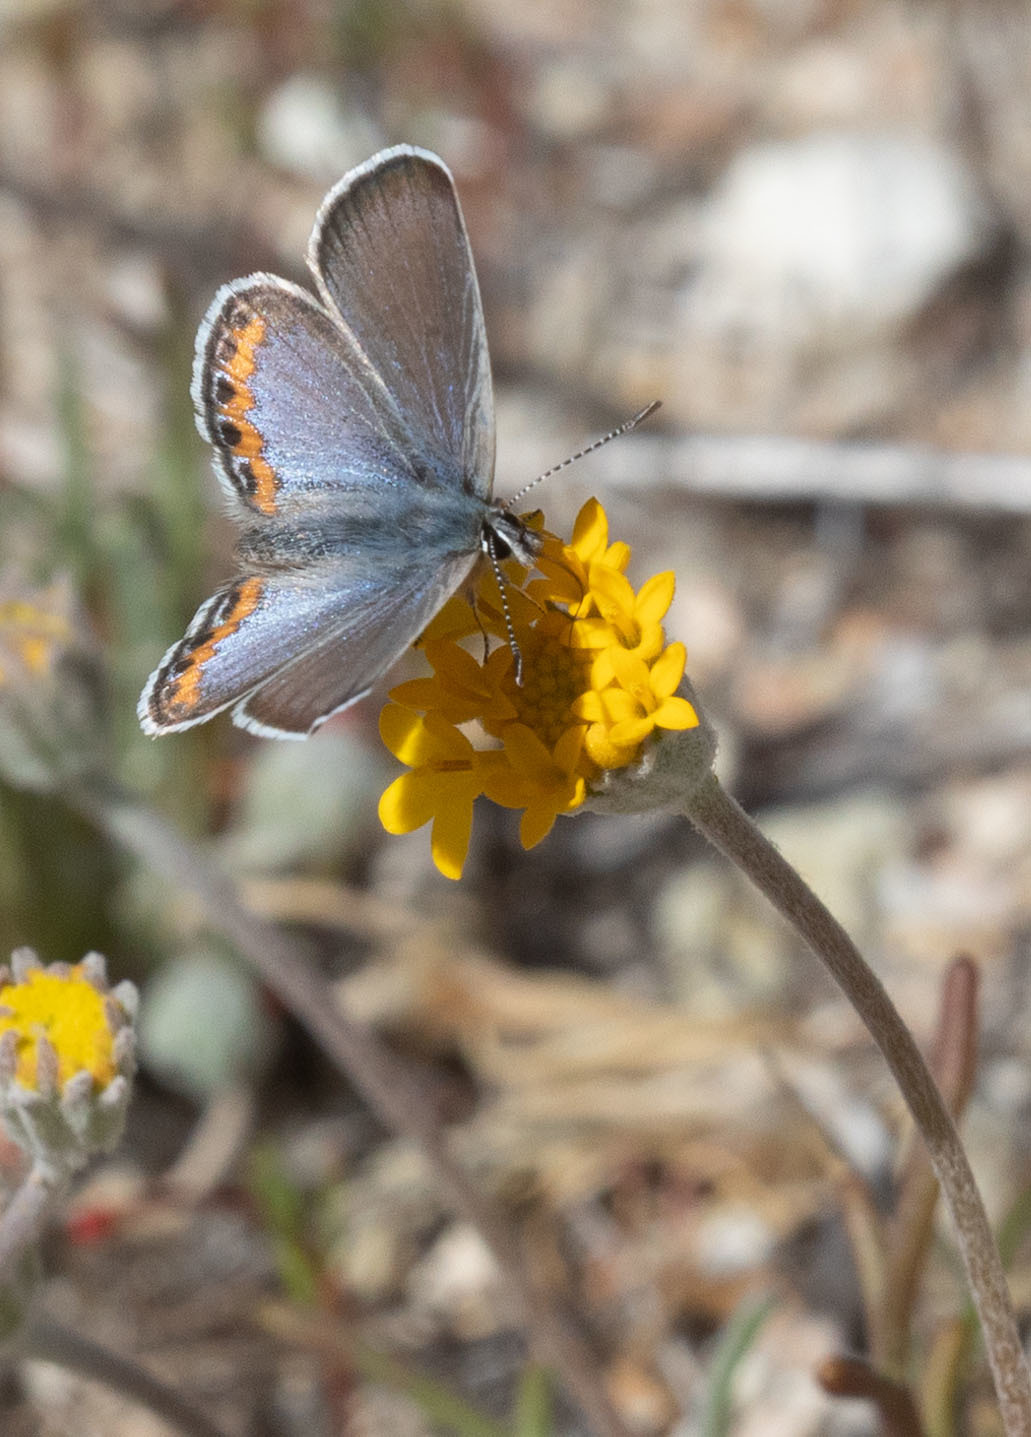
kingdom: Animalia
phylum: Arthropoda
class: Insecta
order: Lepidoptera
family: Lycaenidae
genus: Icaricia
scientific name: Icaricia lupini
